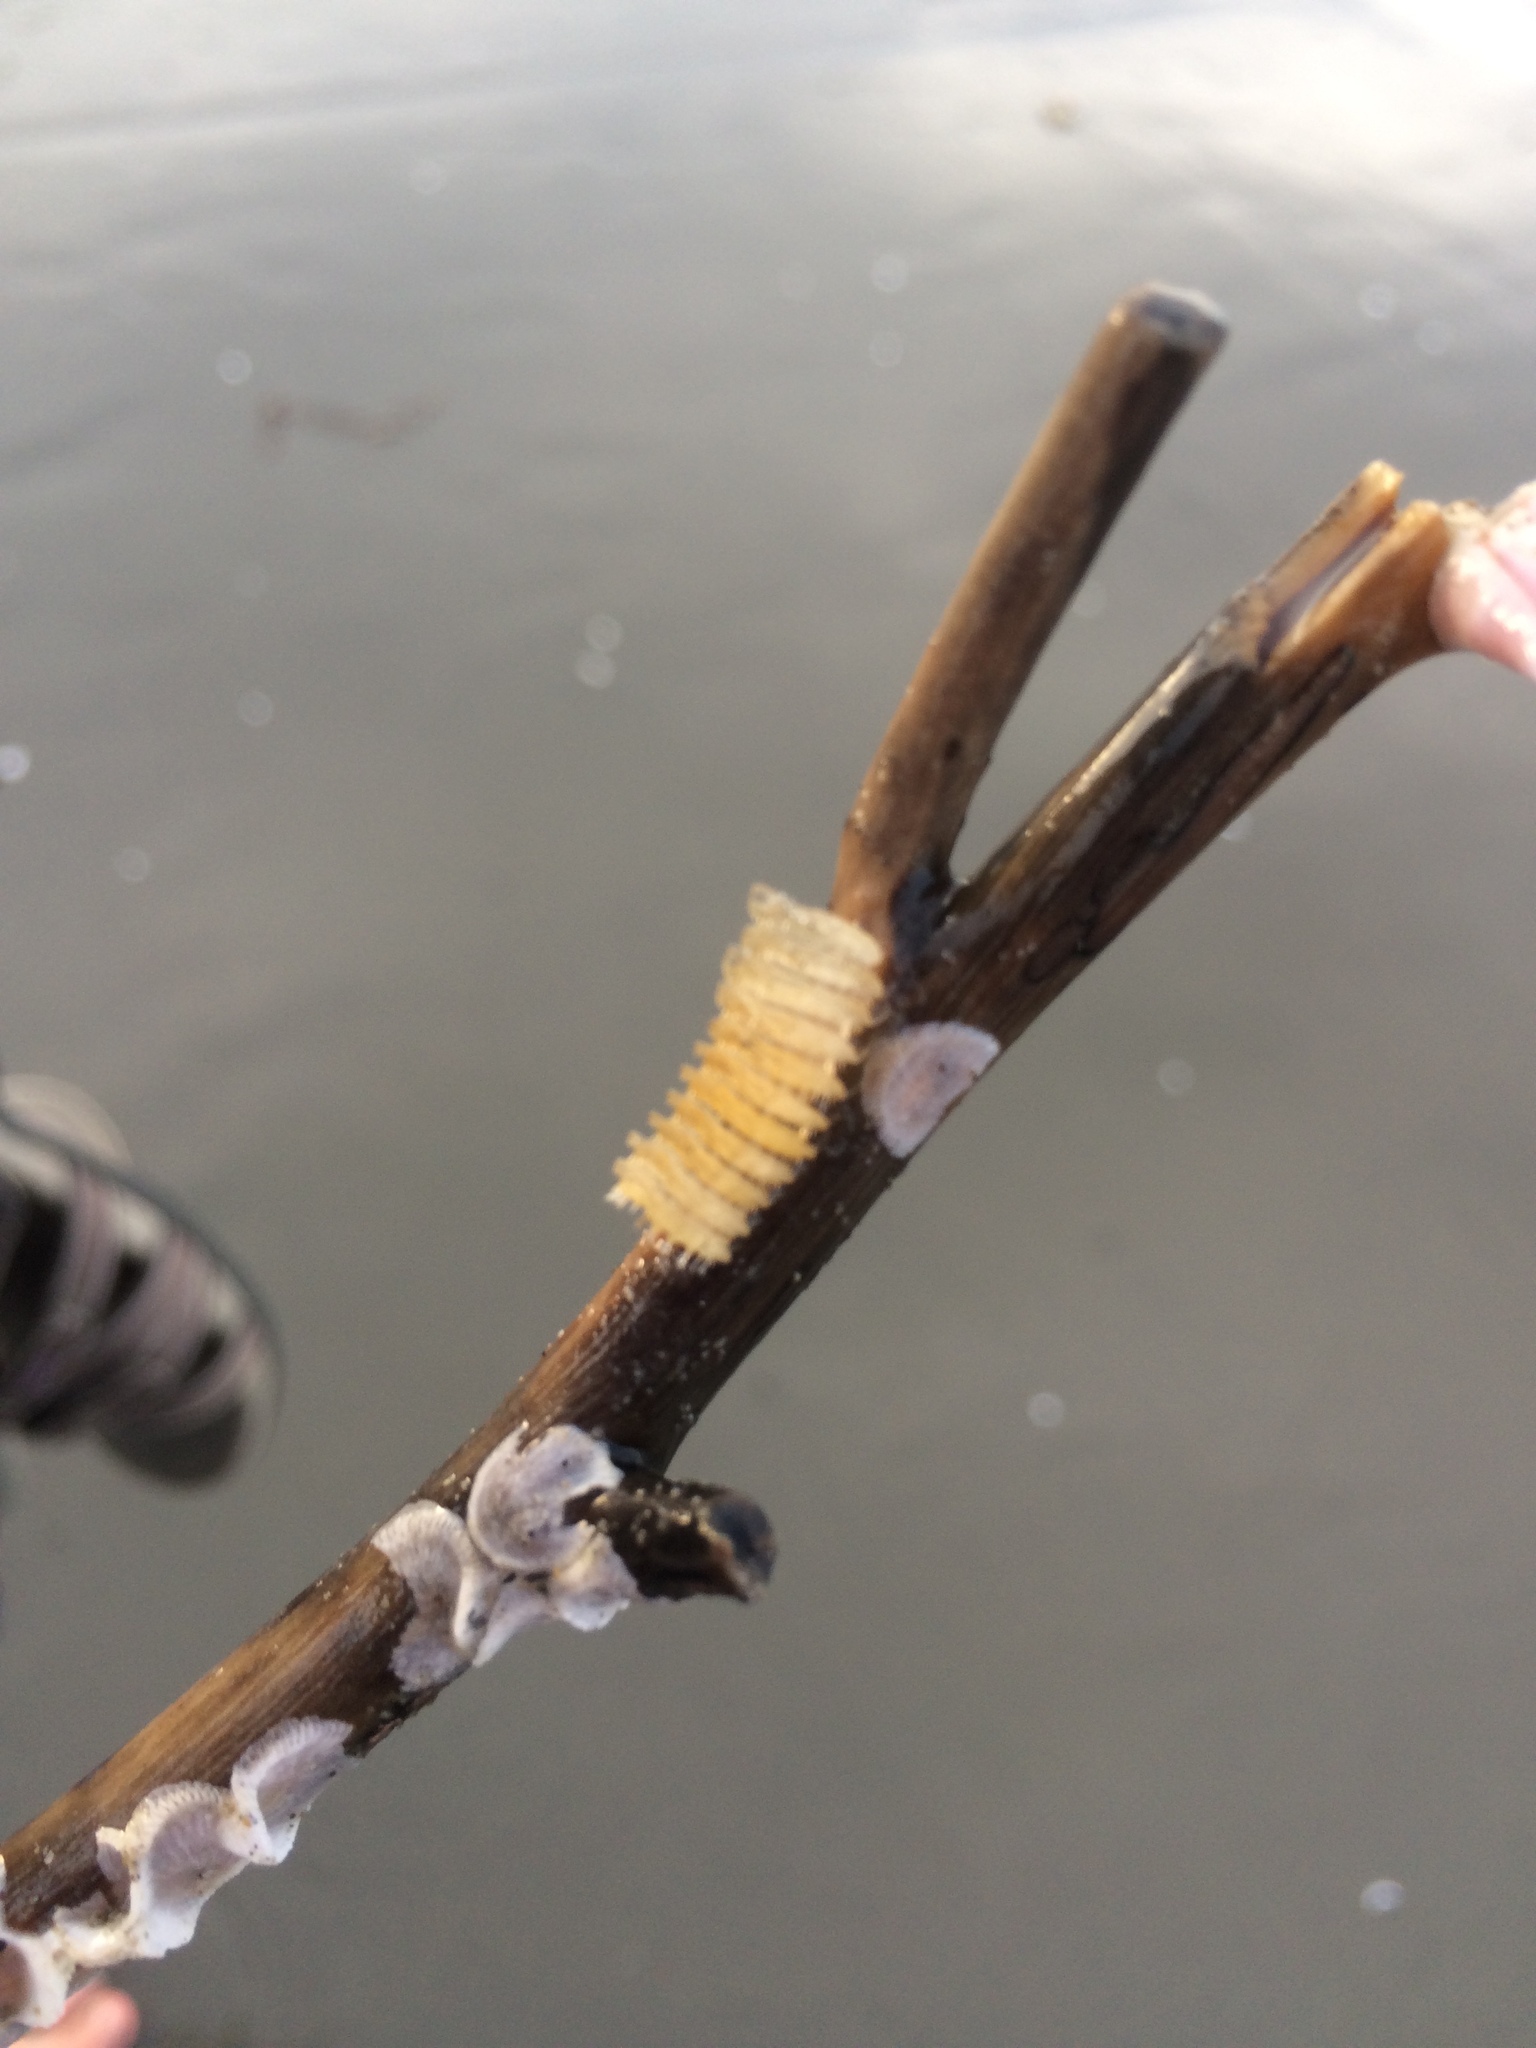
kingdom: Animalia
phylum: Mollusca
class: Gastropoda
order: Neogastropoda
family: Muricidae
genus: Poirieria
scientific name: Poirieria zelandica
